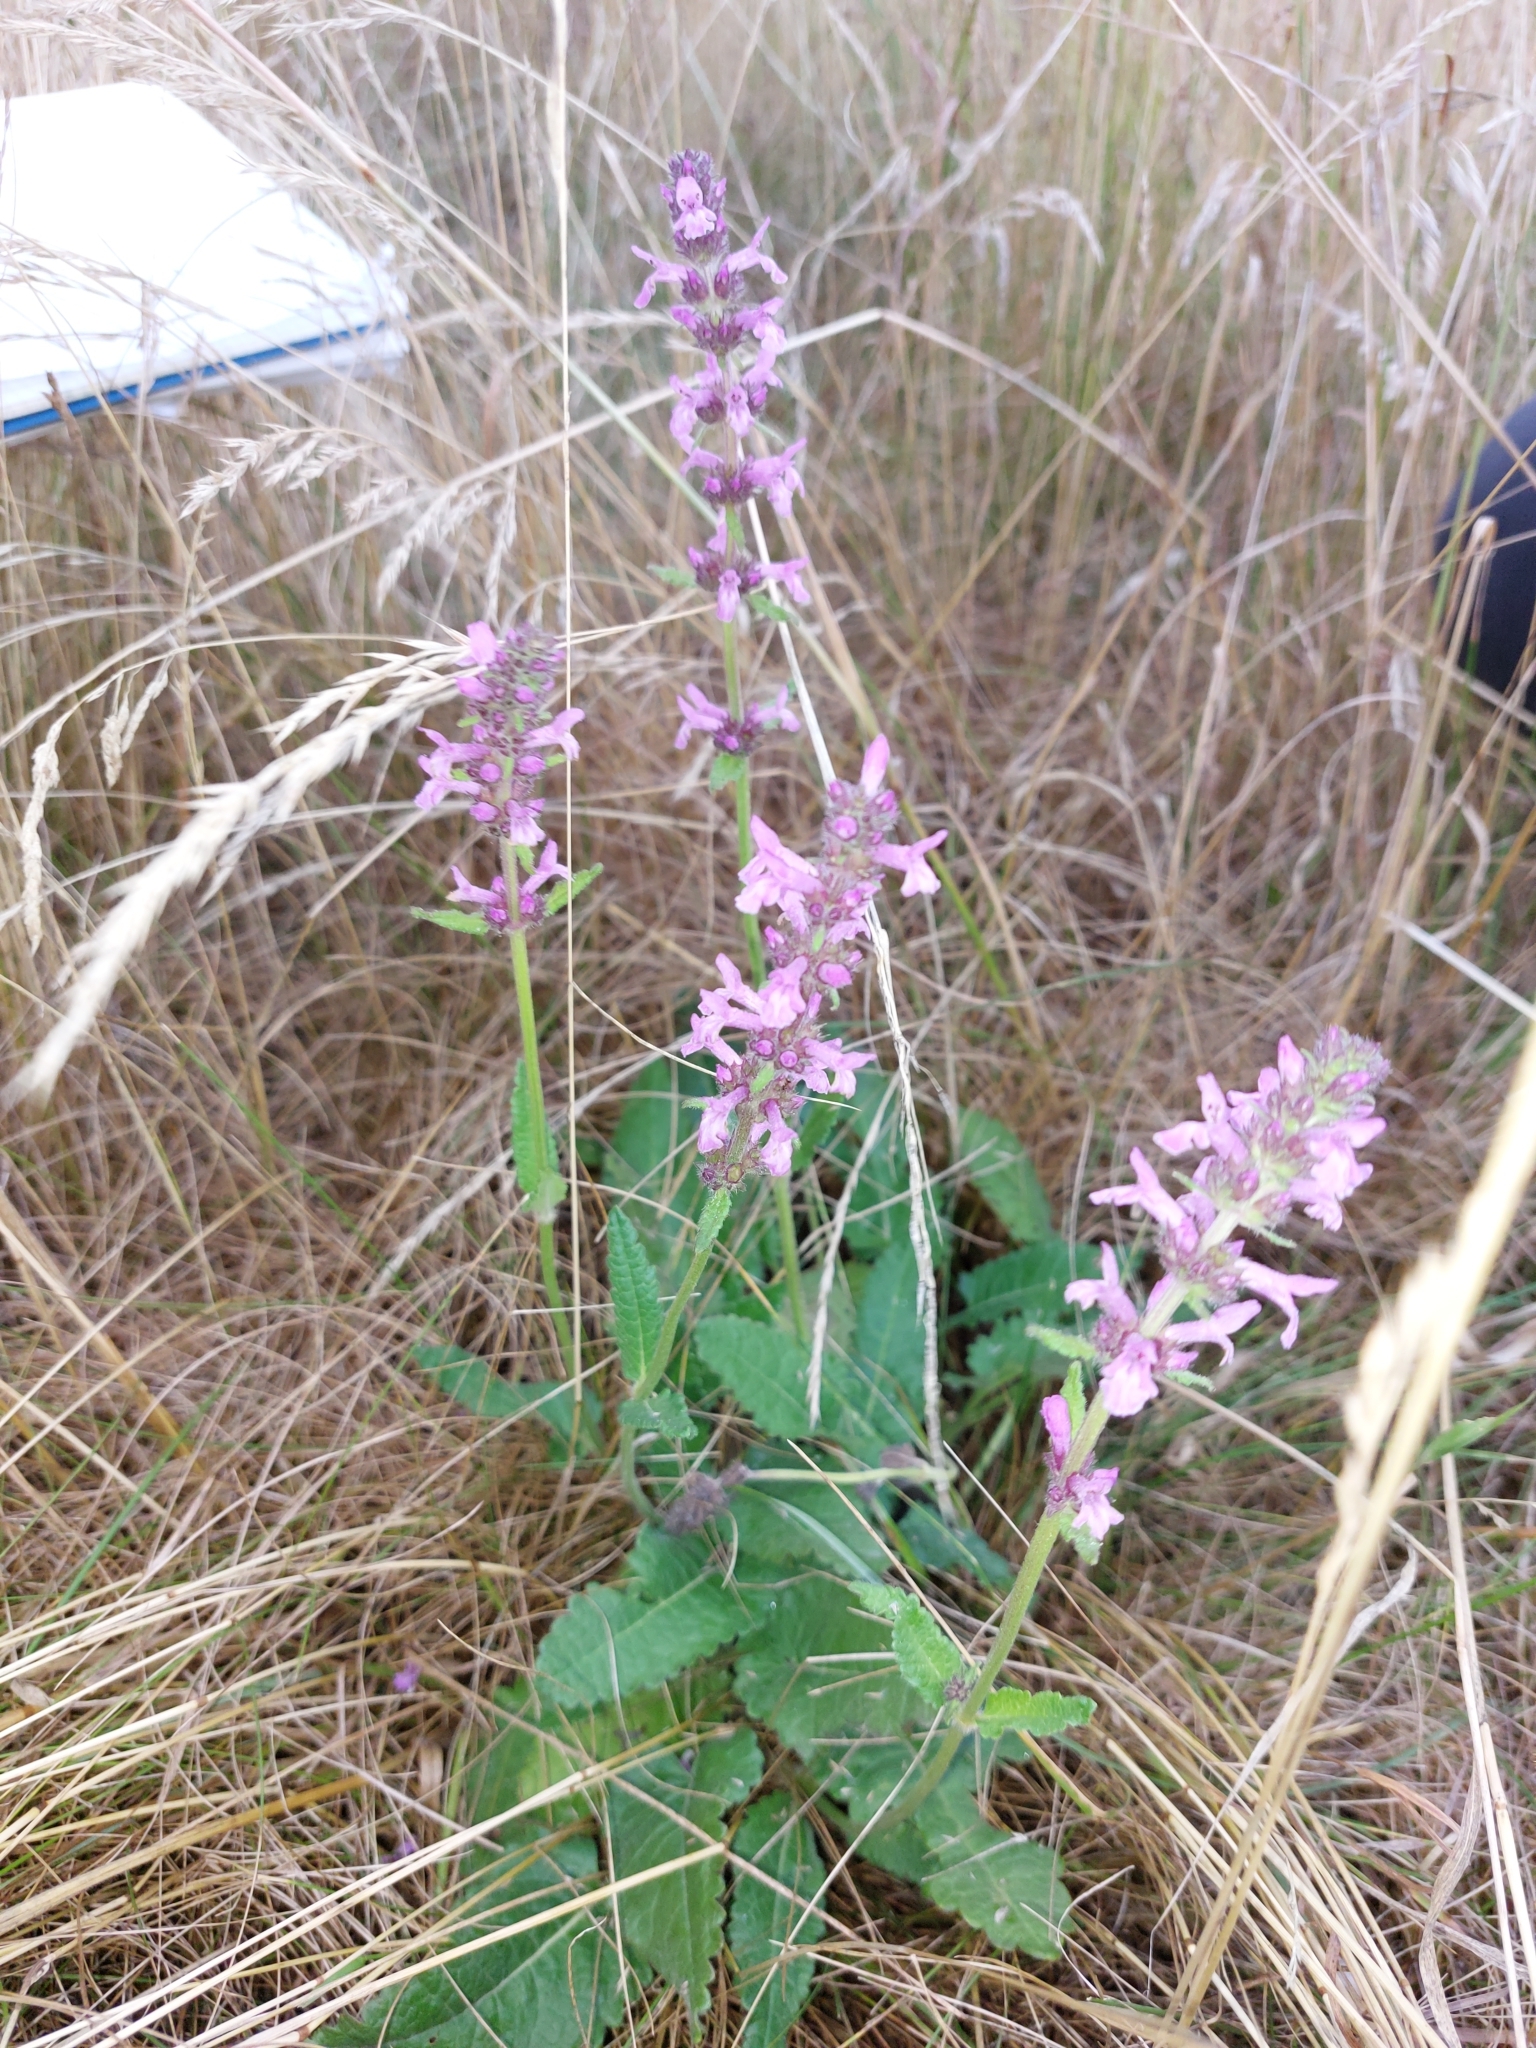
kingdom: Plantae
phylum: Tracheophyta
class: Magnoliopsida
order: Lamiales
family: Lamiaceae
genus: Betonica
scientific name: Betonica officinalis
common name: Bishop's-wort
